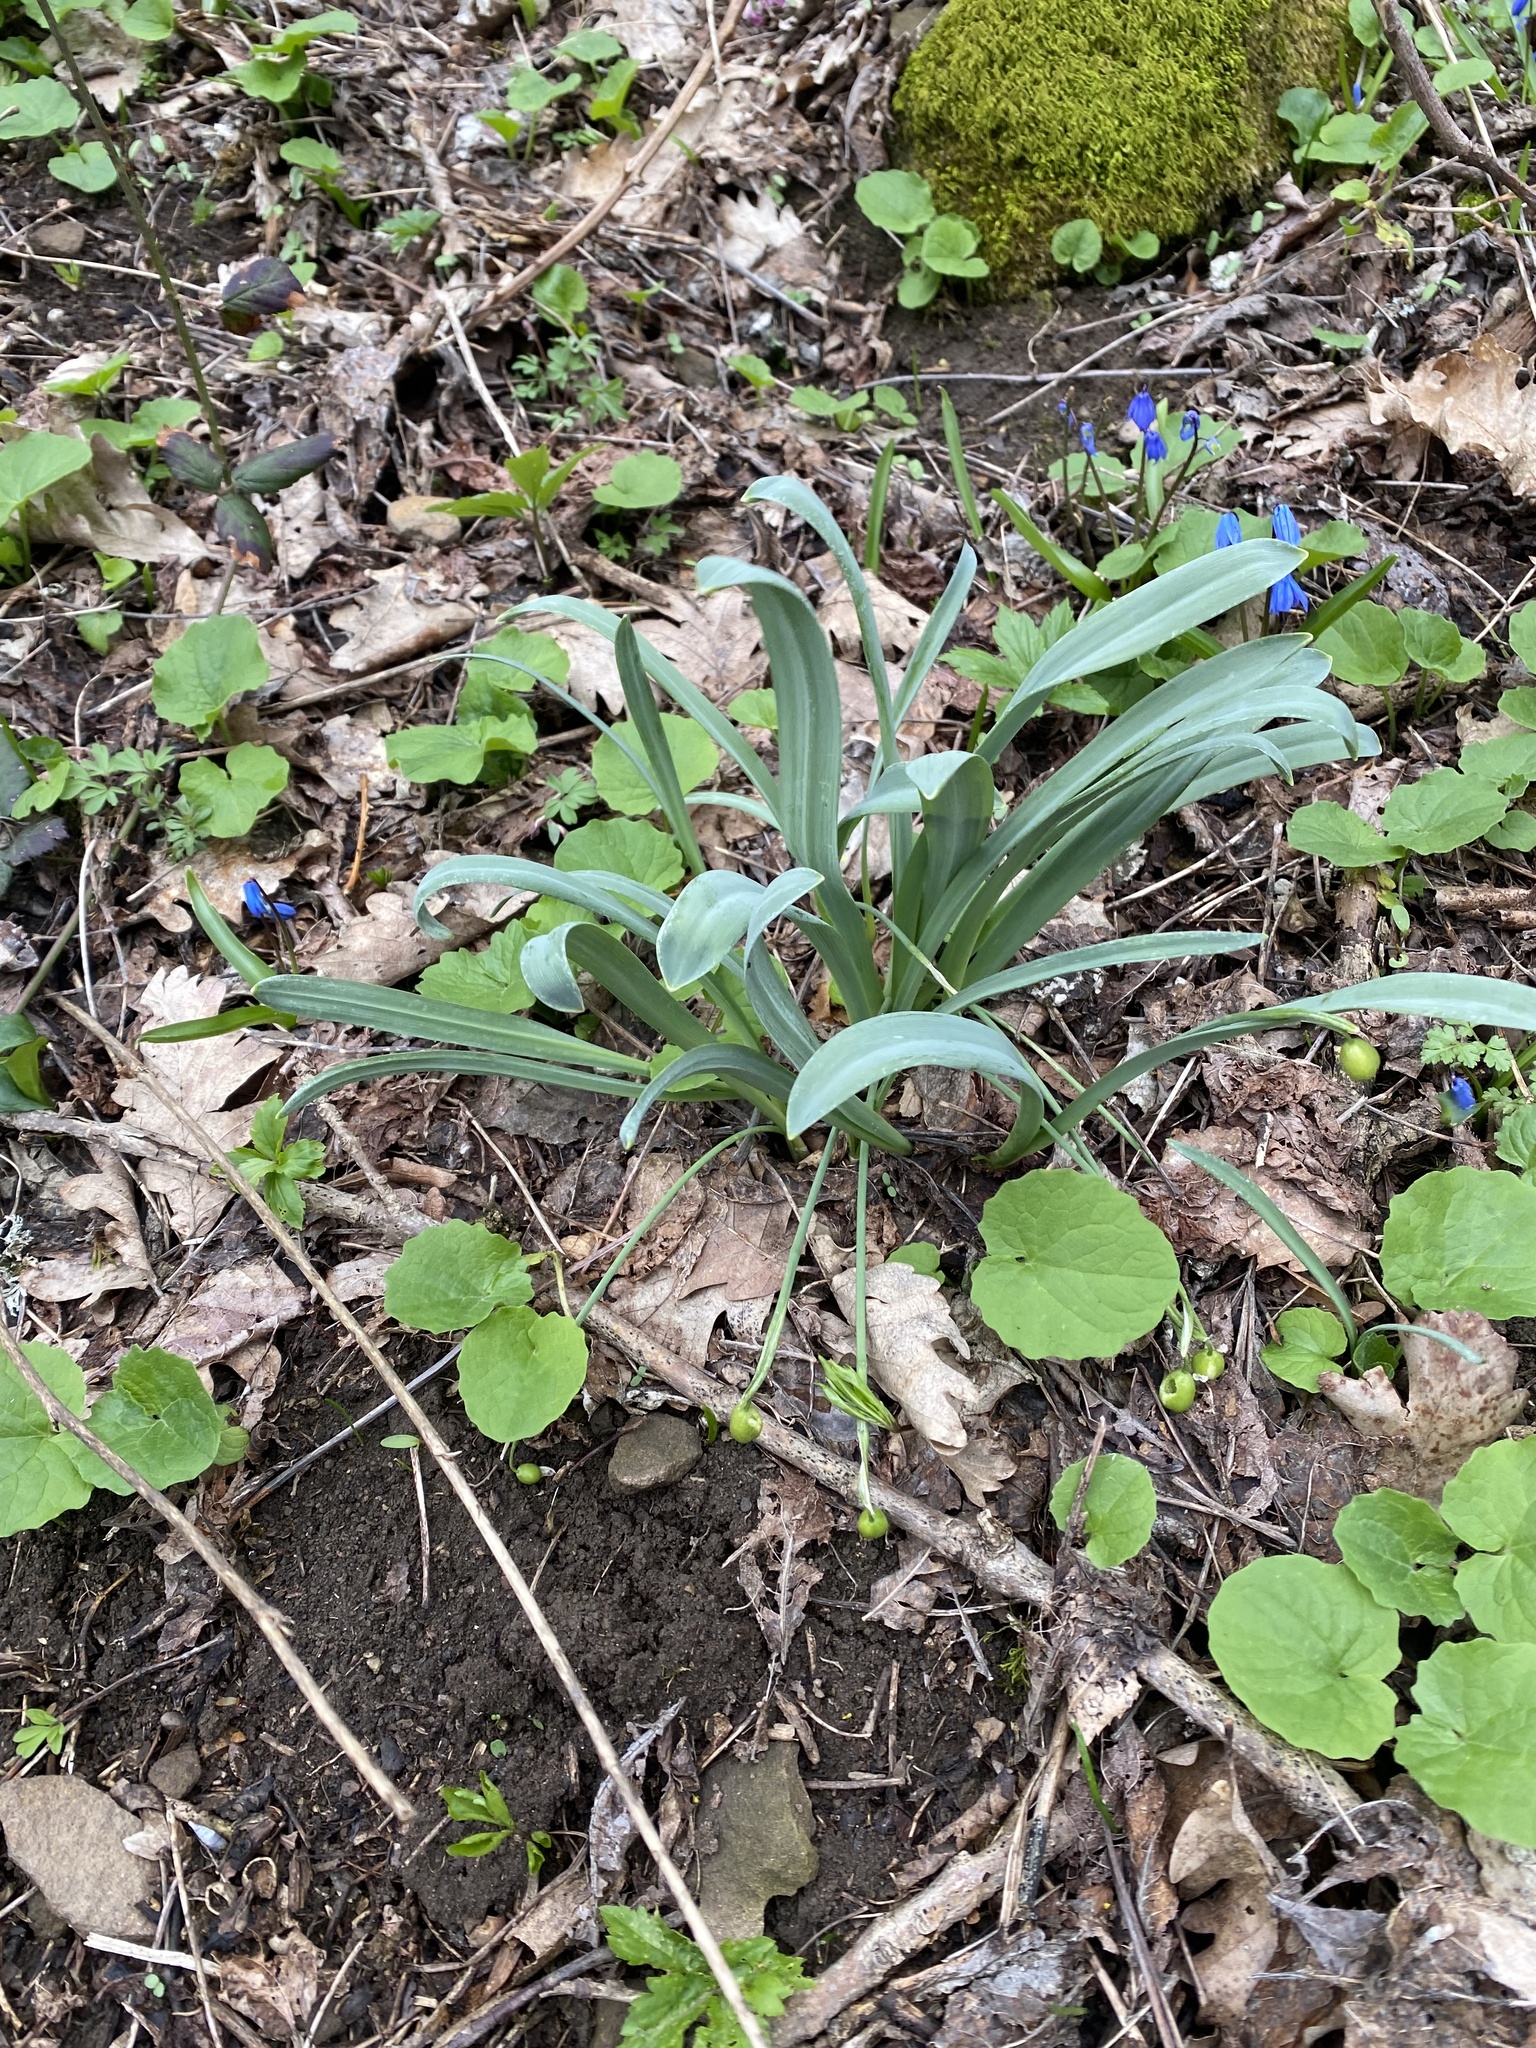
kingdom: Plantae
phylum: Tracheophyta
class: Liliopsida
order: Asparagales
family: Amaryllidaceae
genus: Galanthus
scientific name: Galanthus alpinus
